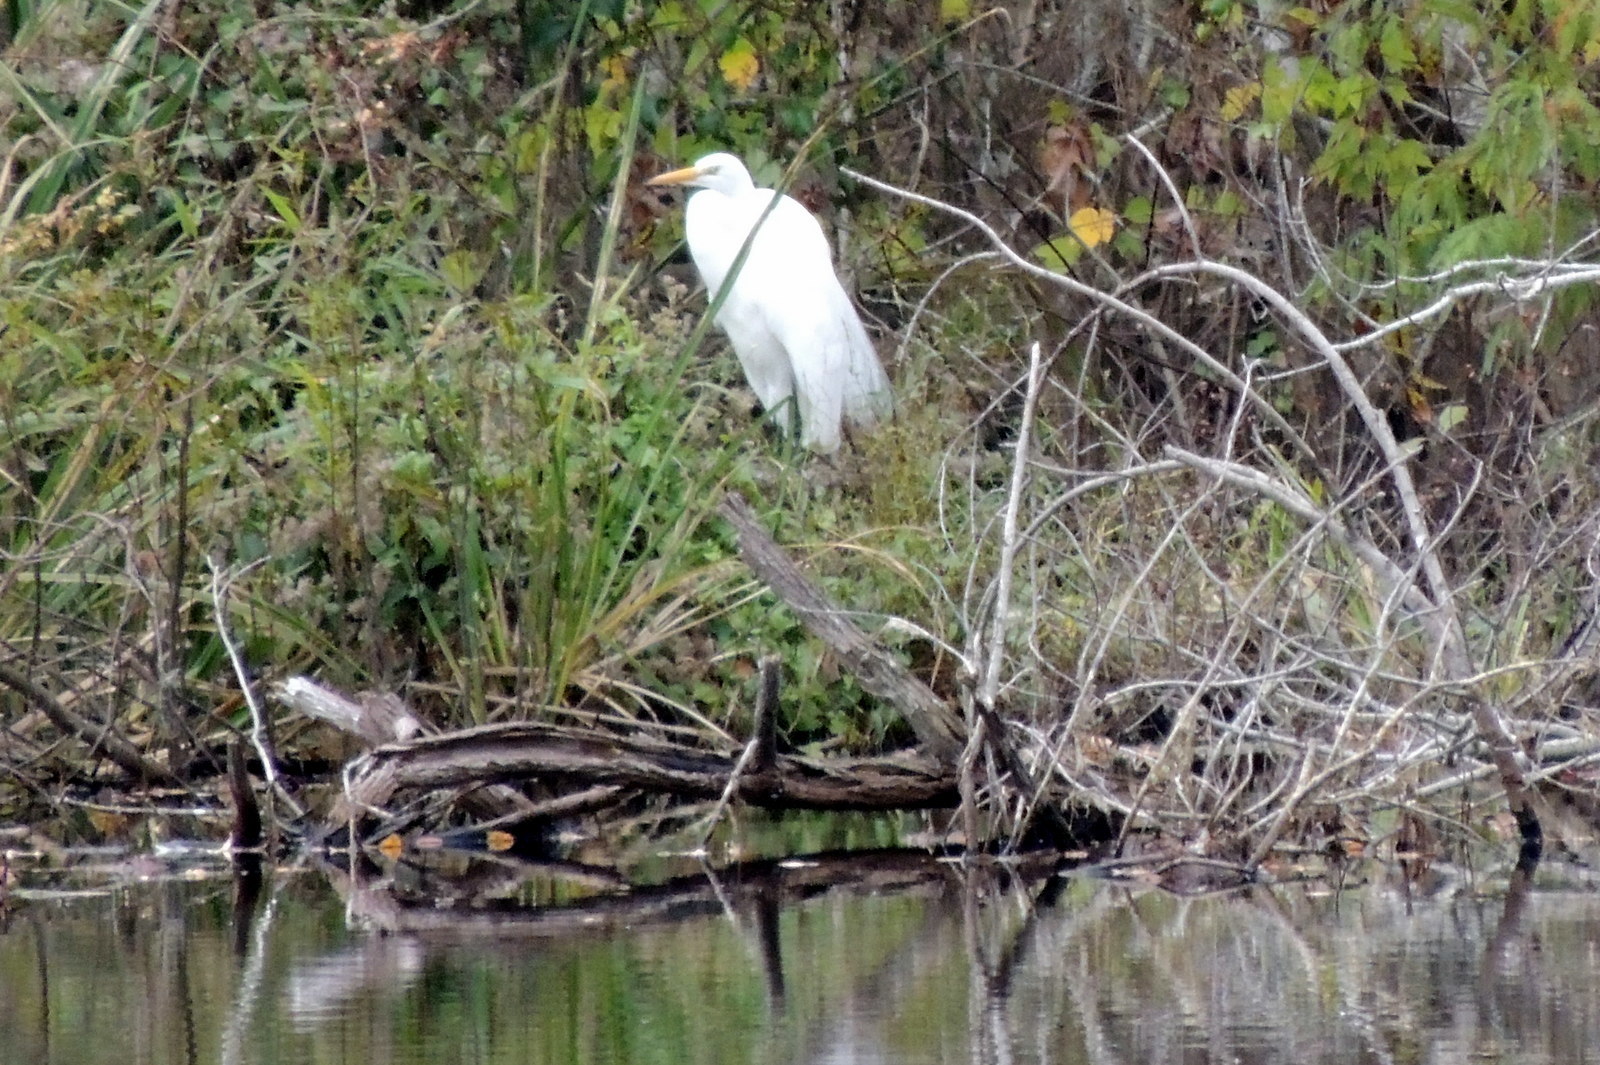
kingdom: Animalia
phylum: Chordata
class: Aves
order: Pelecaniformes
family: Ardeidae
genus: Ardea
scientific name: Ardea alba
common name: Great egret
